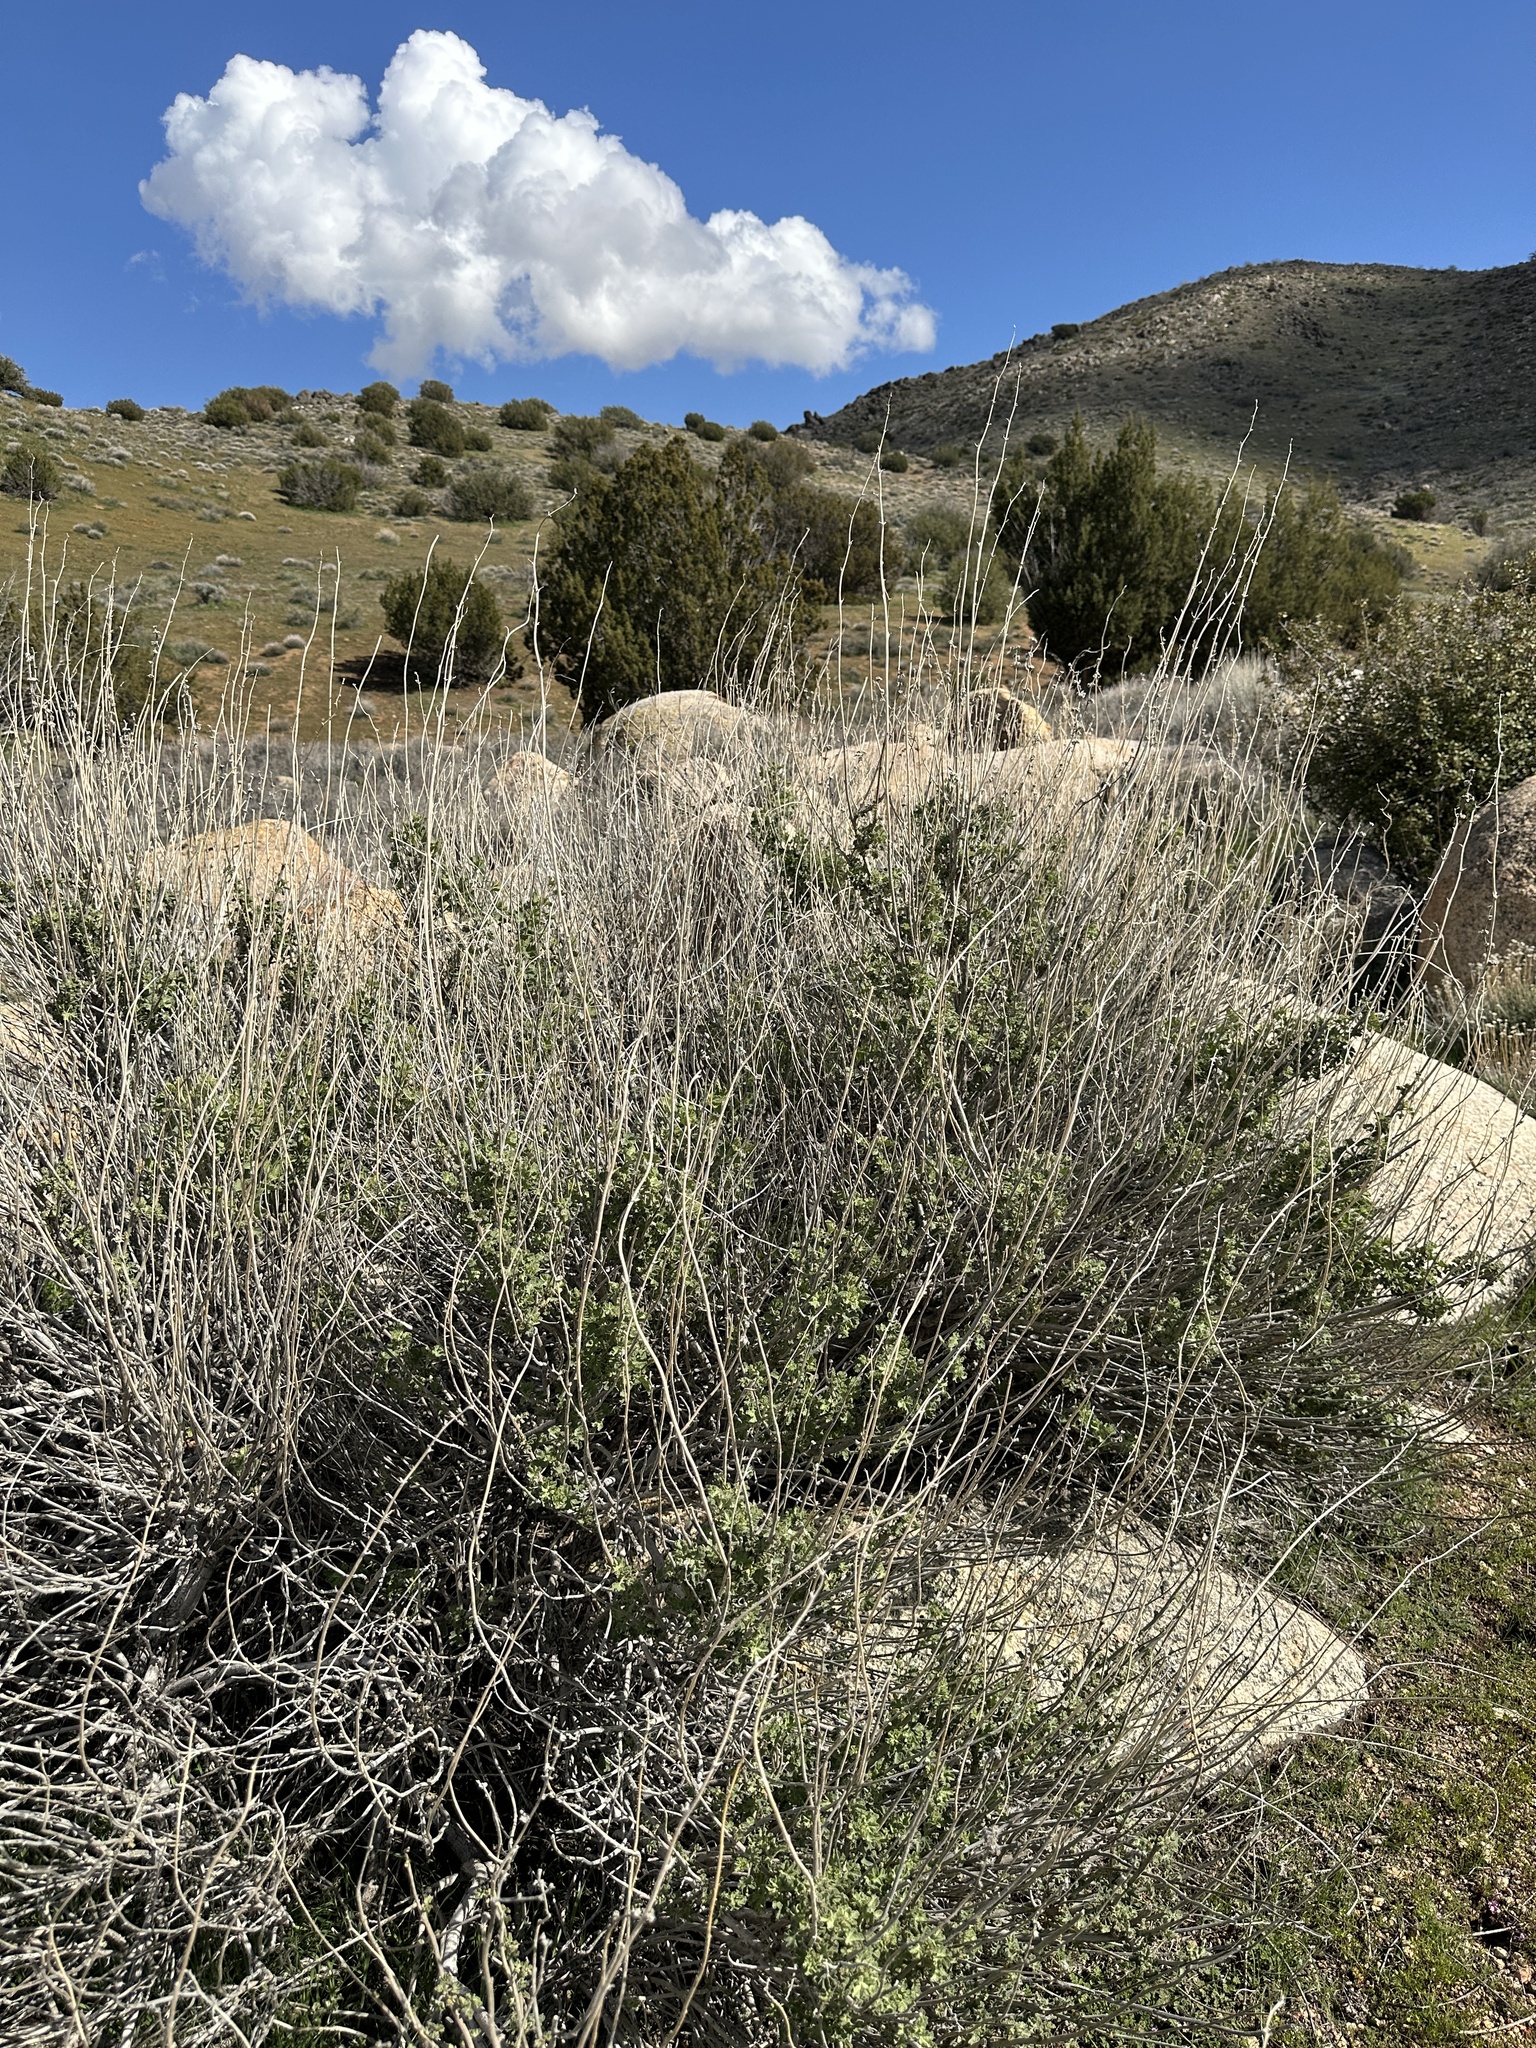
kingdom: Plantae
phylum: Tracheophyta
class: Magnoliopsida
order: Malvales
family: Malvaceae
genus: Malacothamnus
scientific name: Malacothamnus fremontii
